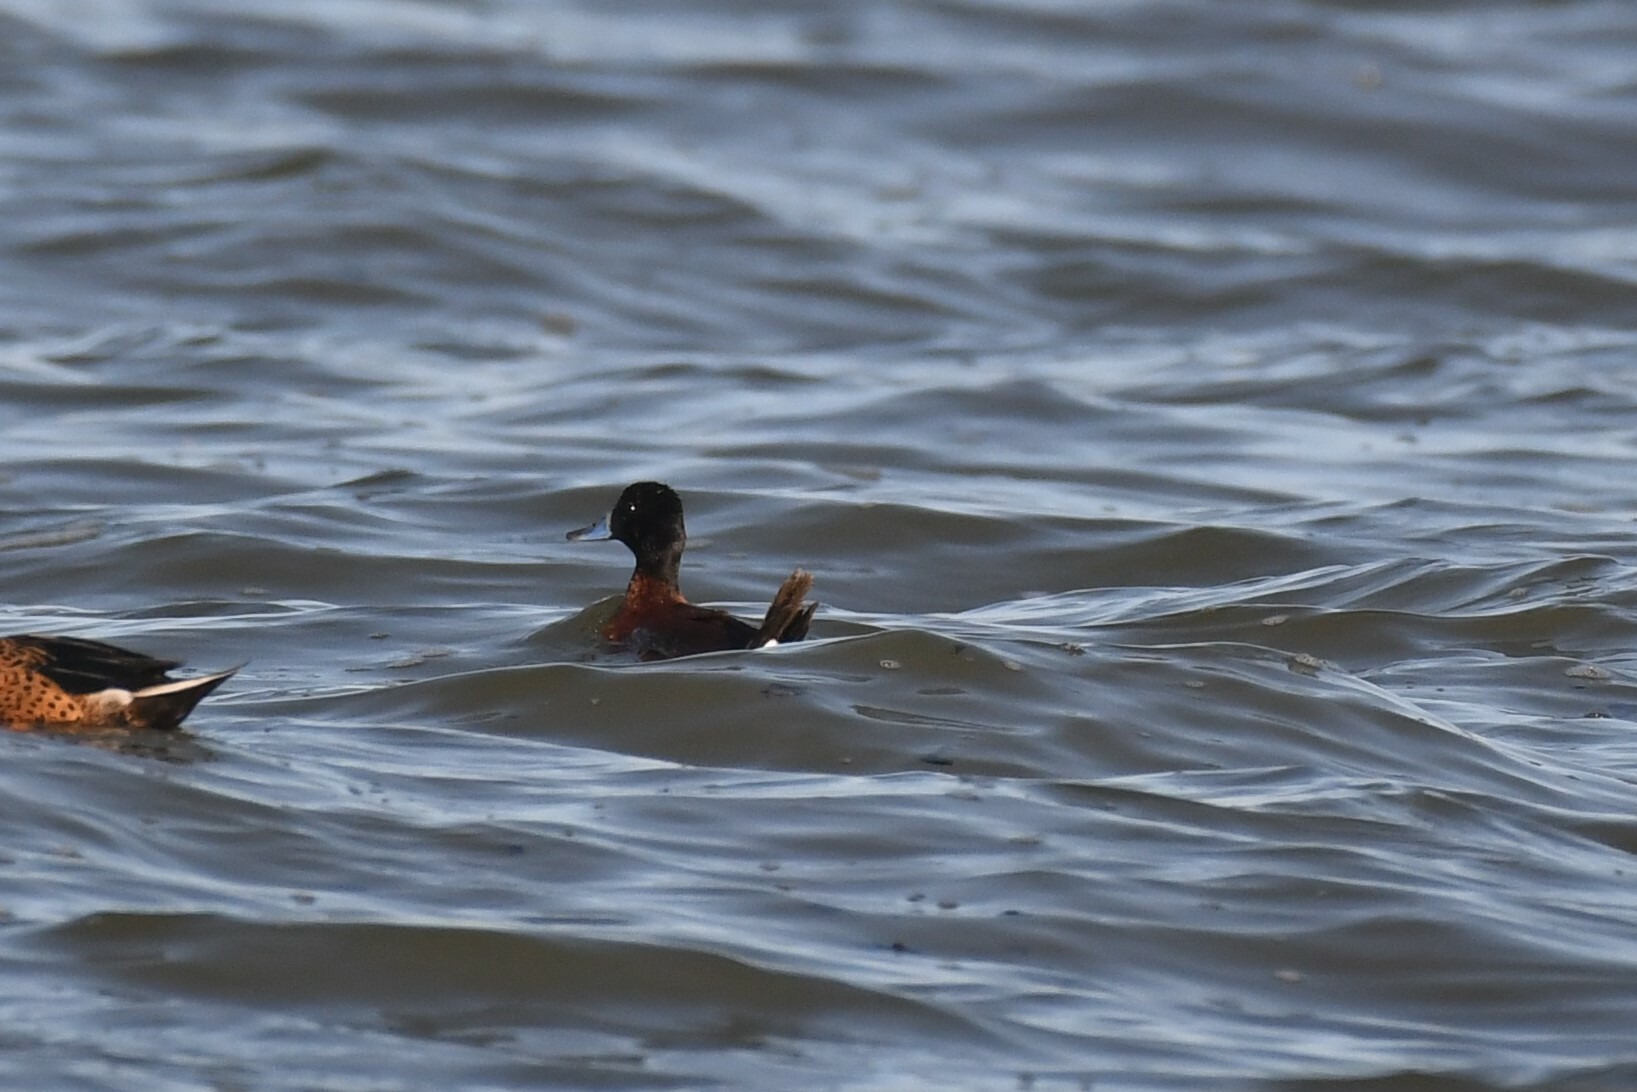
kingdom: Animalia
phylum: Chordata
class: Aves
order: Anseriformes
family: Anatidae
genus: Oxyura
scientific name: Oxyura vittata
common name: Lake duck
